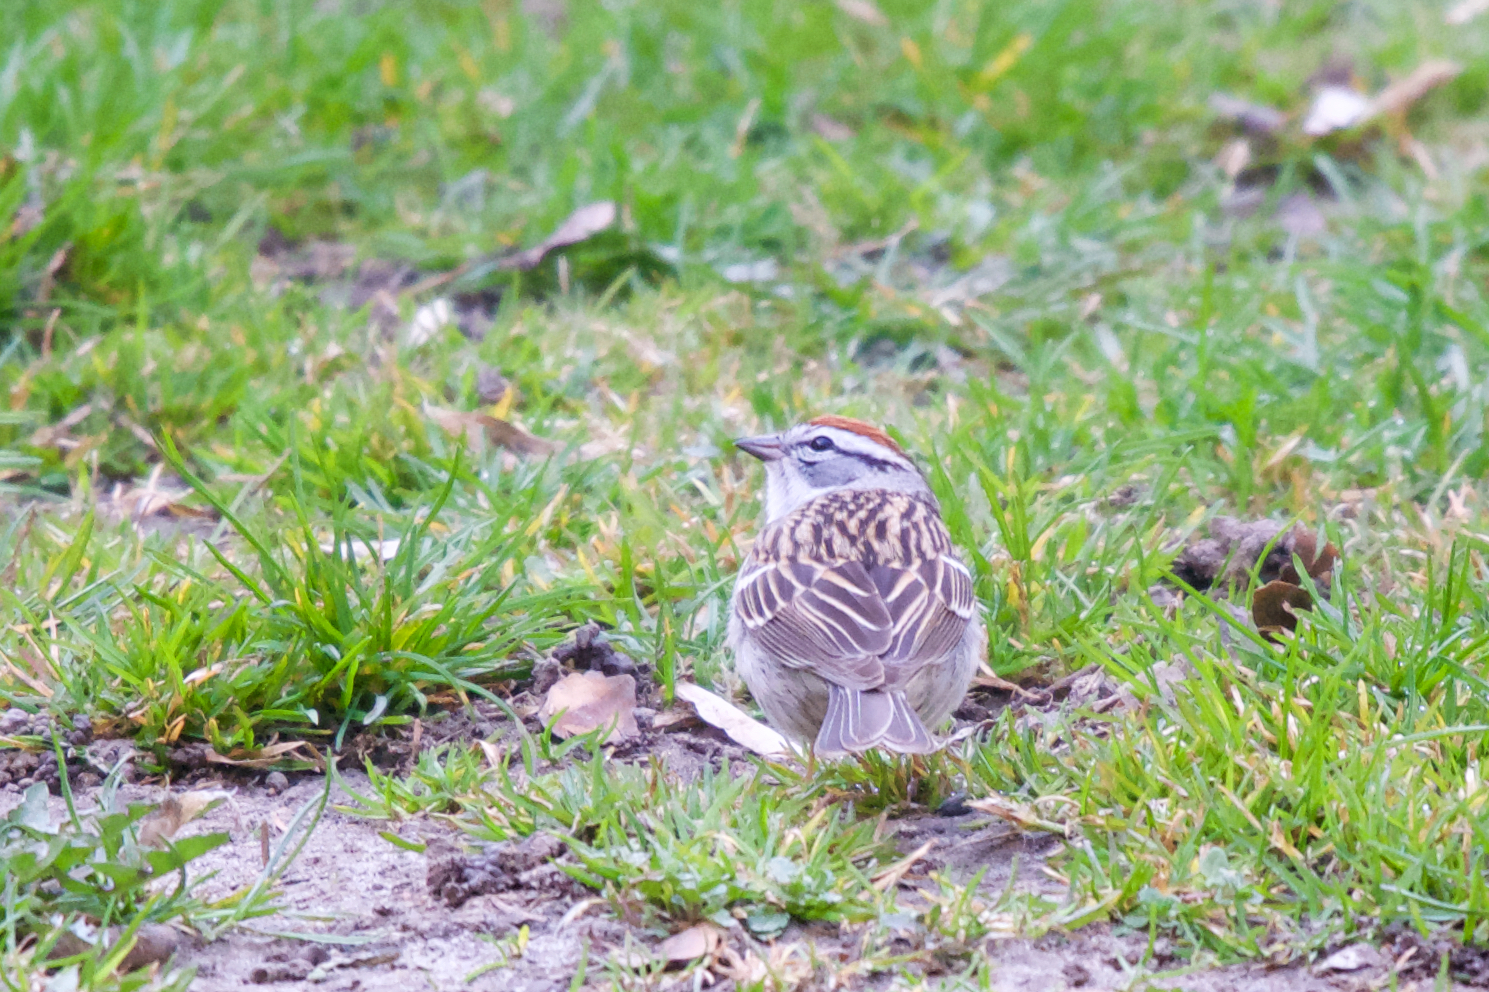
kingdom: Animalia
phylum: Chordata
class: Aves
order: Passeriformes
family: Passerellidae
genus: Spizella
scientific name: Spizella passerina
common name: Chipping sparrow
